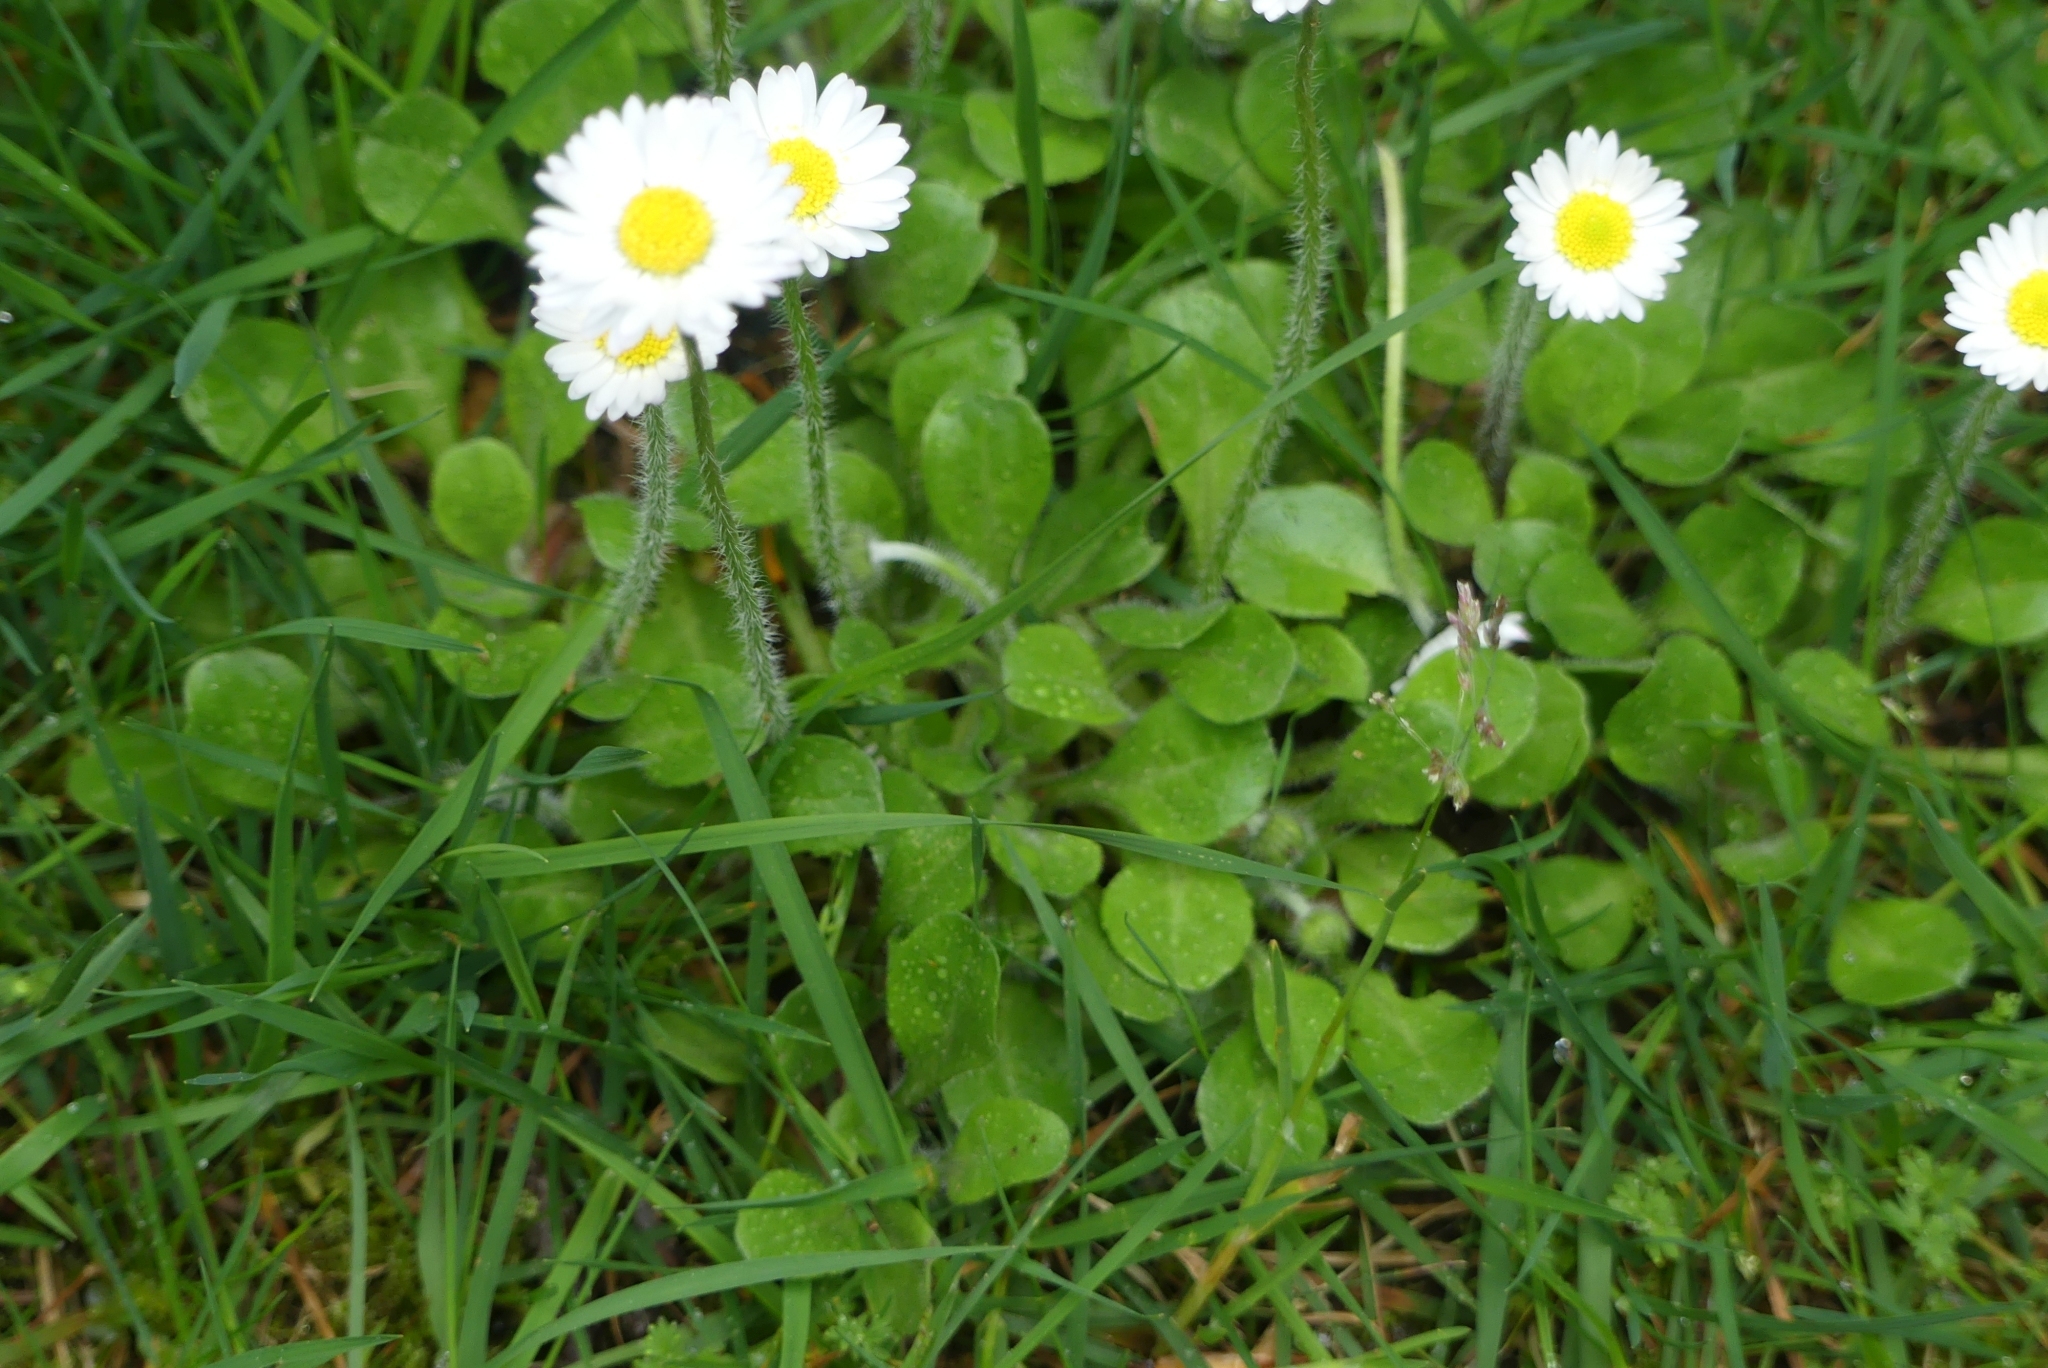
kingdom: Plantae
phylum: Tracheophyta
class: Magnoliopsida
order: Asterales
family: Asteraceae
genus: Bellis
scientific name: Bellis perennis
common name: Lawndaisy
